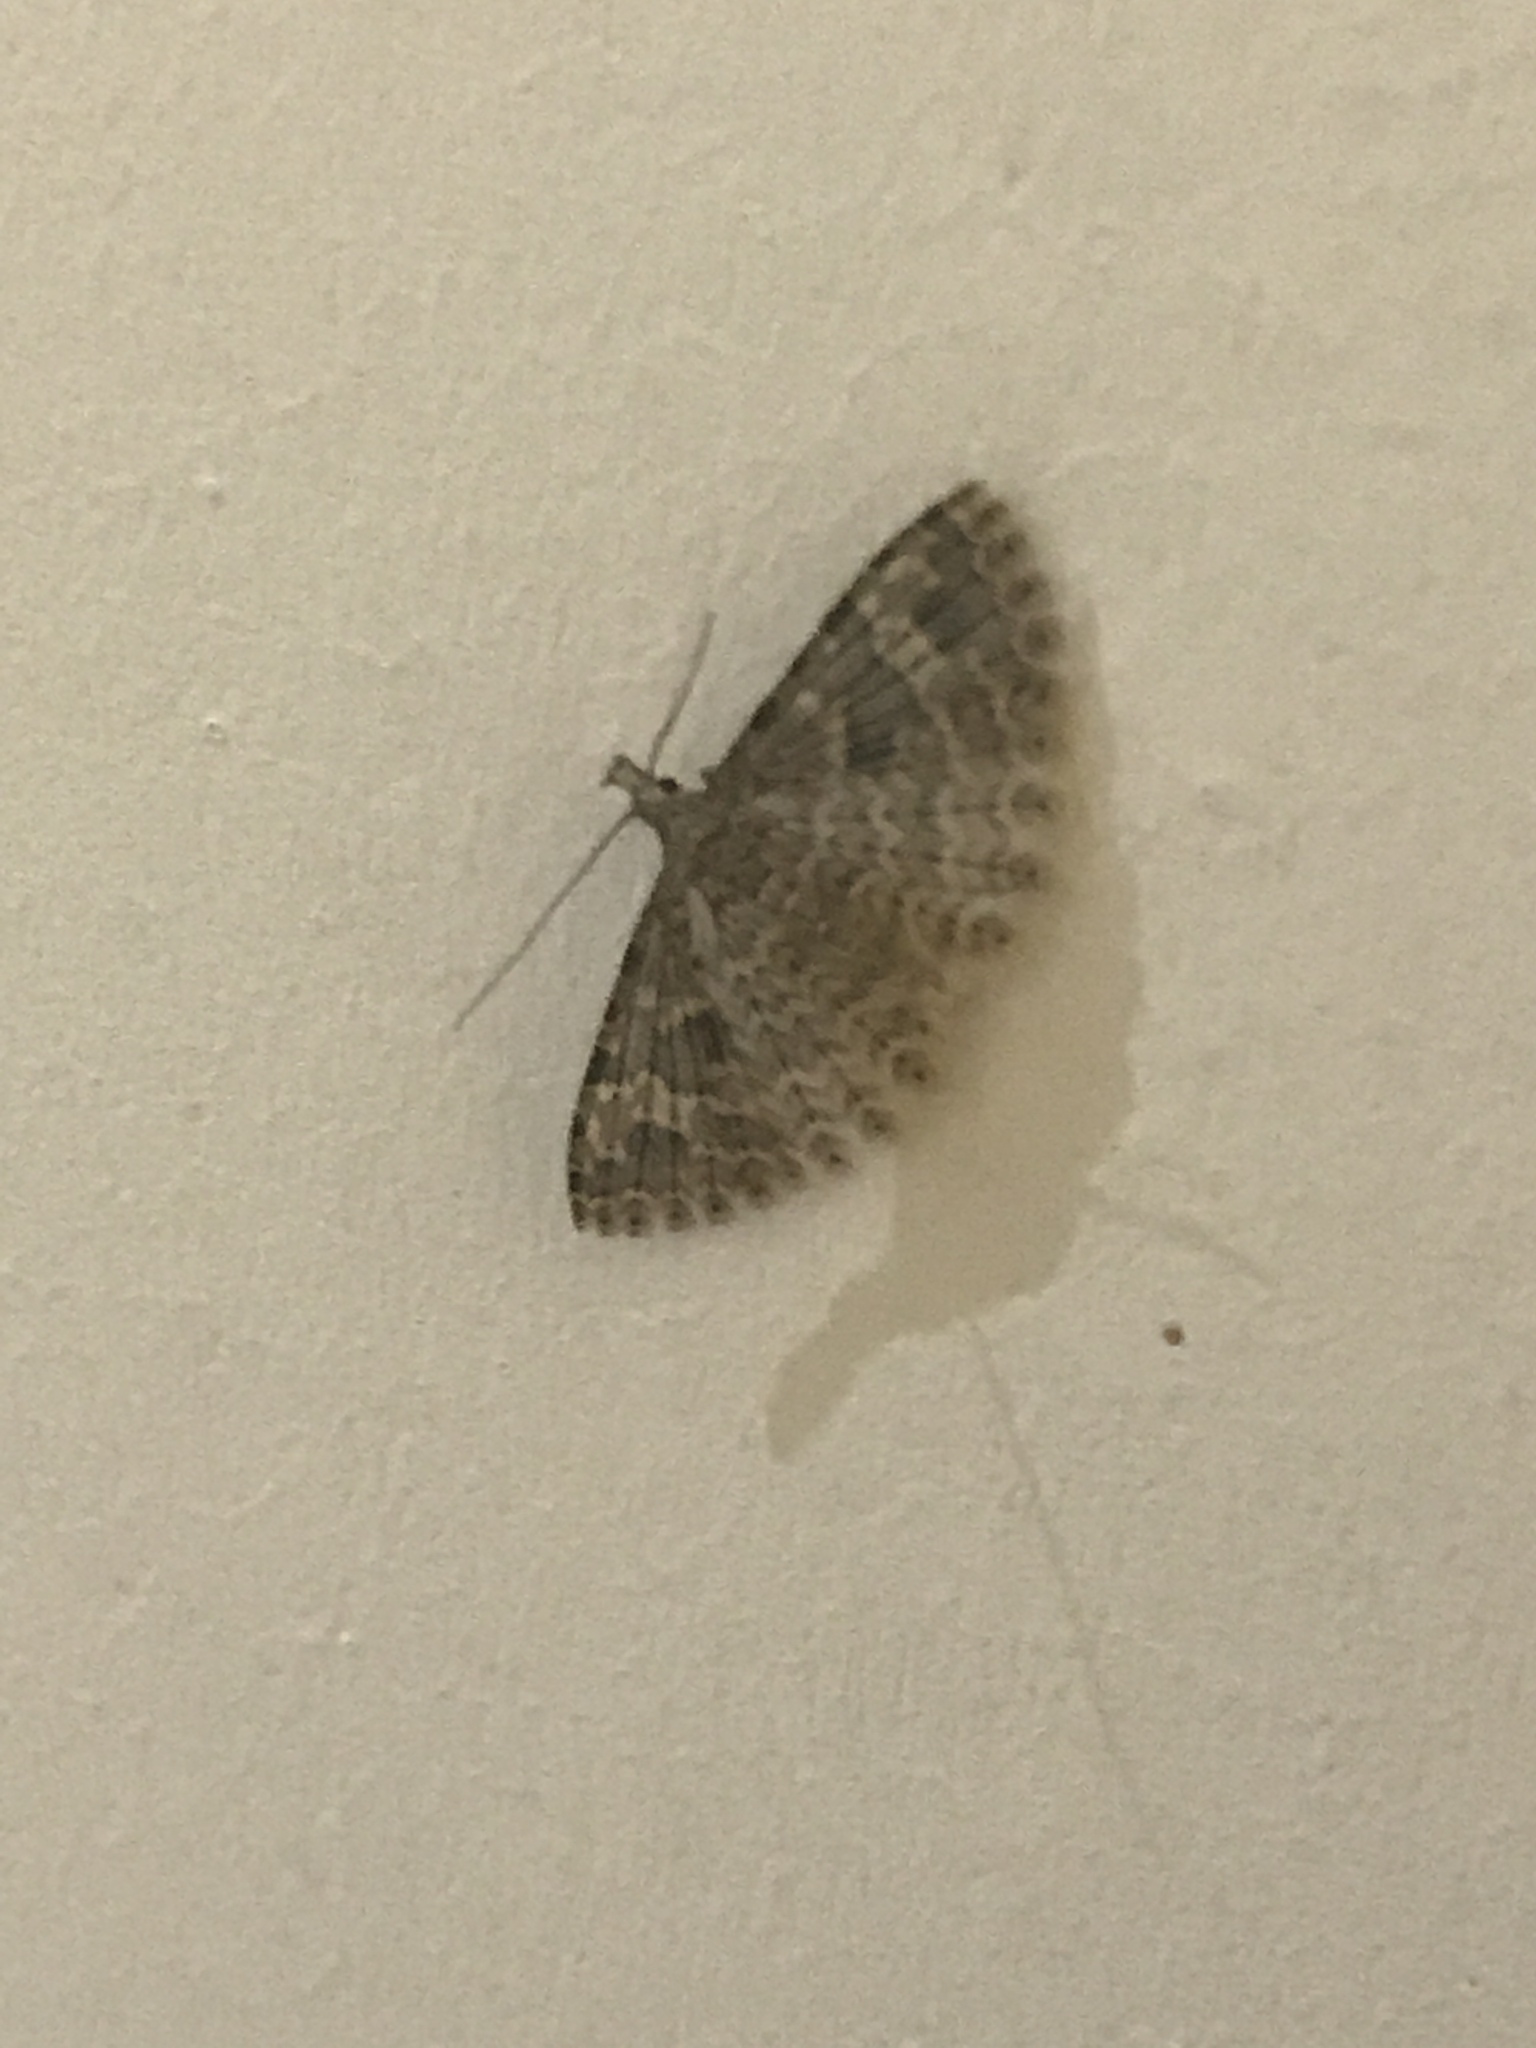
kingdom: Animalia
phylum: Arthropoda
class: Insecta
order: Lepidoptera
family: Alucitidae
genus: Alucita
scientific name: Alucita hexadactyla
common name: Twenty-plume moth
